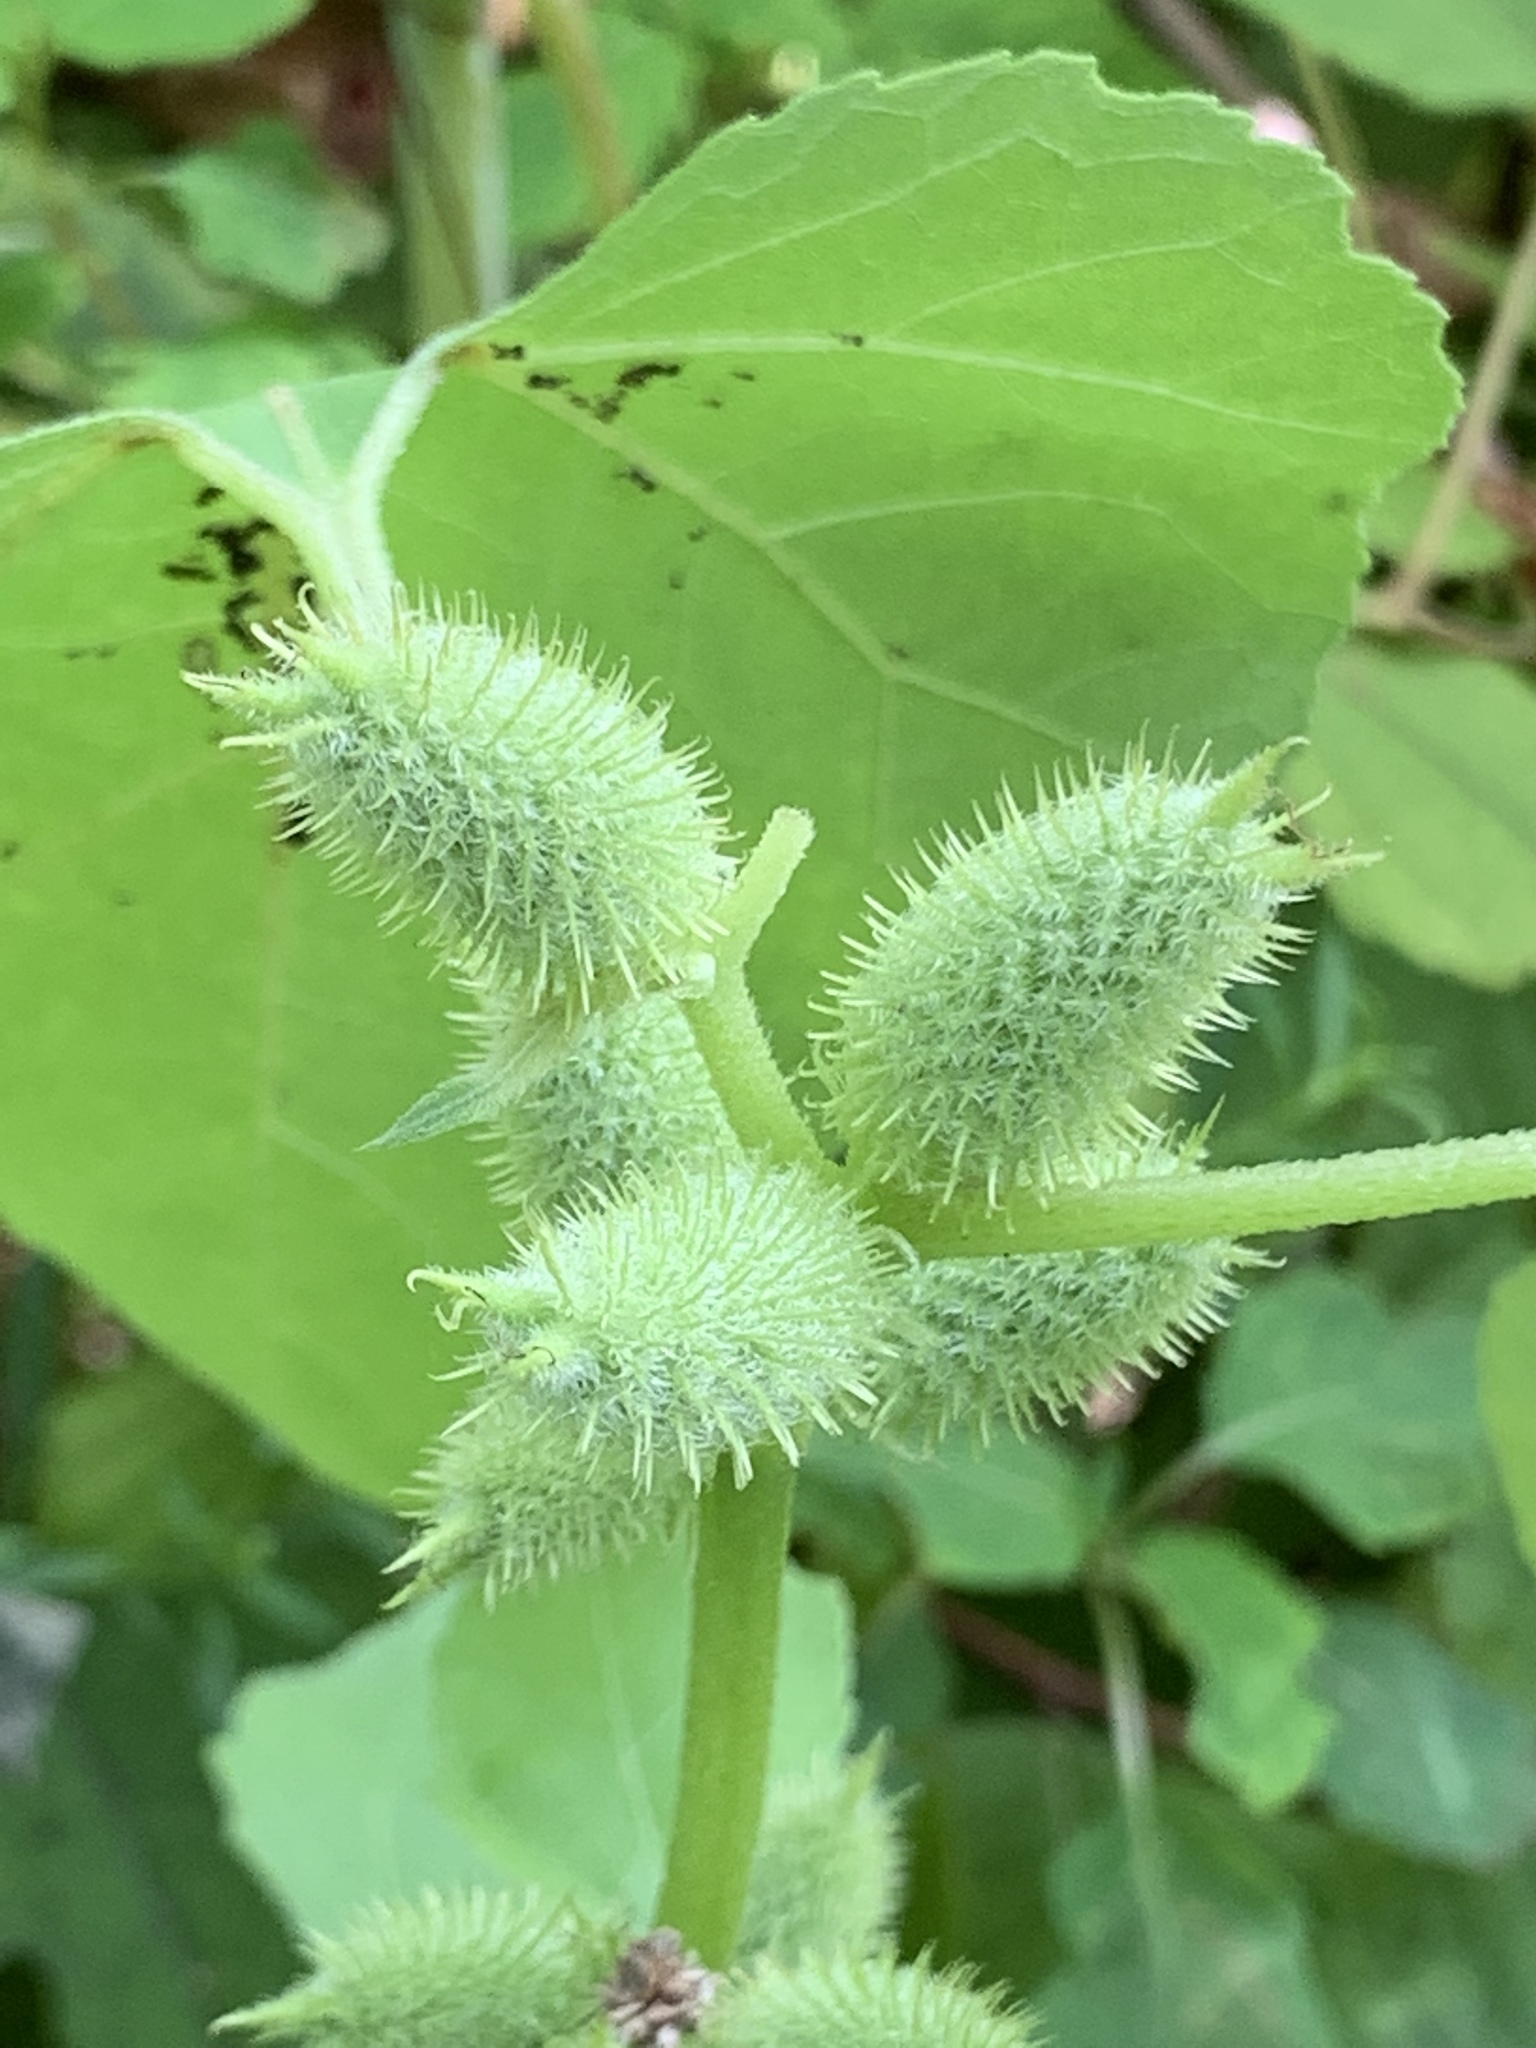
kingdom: Plantae
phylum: Tracheophyta
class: Magnoliopsida
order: Asterales
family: Asteraceae
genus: Xanthium
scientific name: Xanthium strumarium
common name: Rough cocklebur
